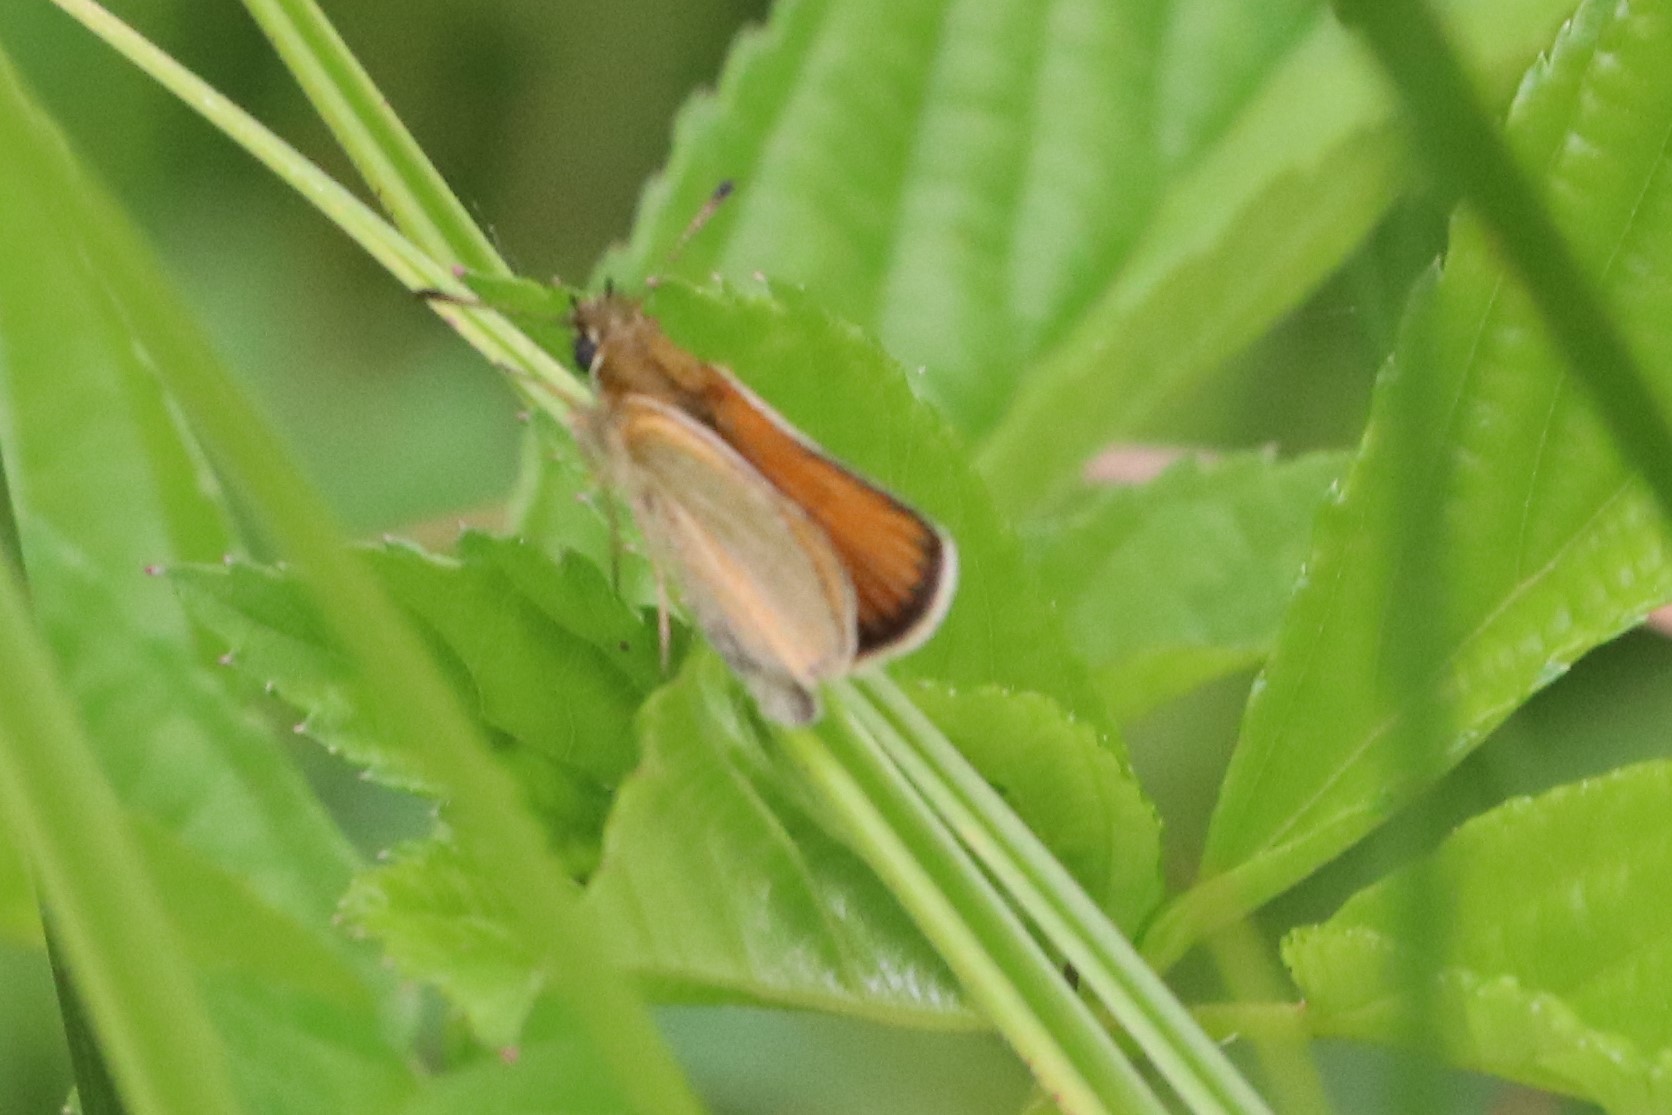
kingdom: Animalia
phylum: Arthropoda
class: Insecta
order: Lepidoptera
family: Hesperiidae
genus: Thymelicus
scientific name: Thymelicus lineola
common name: Essex skipper
